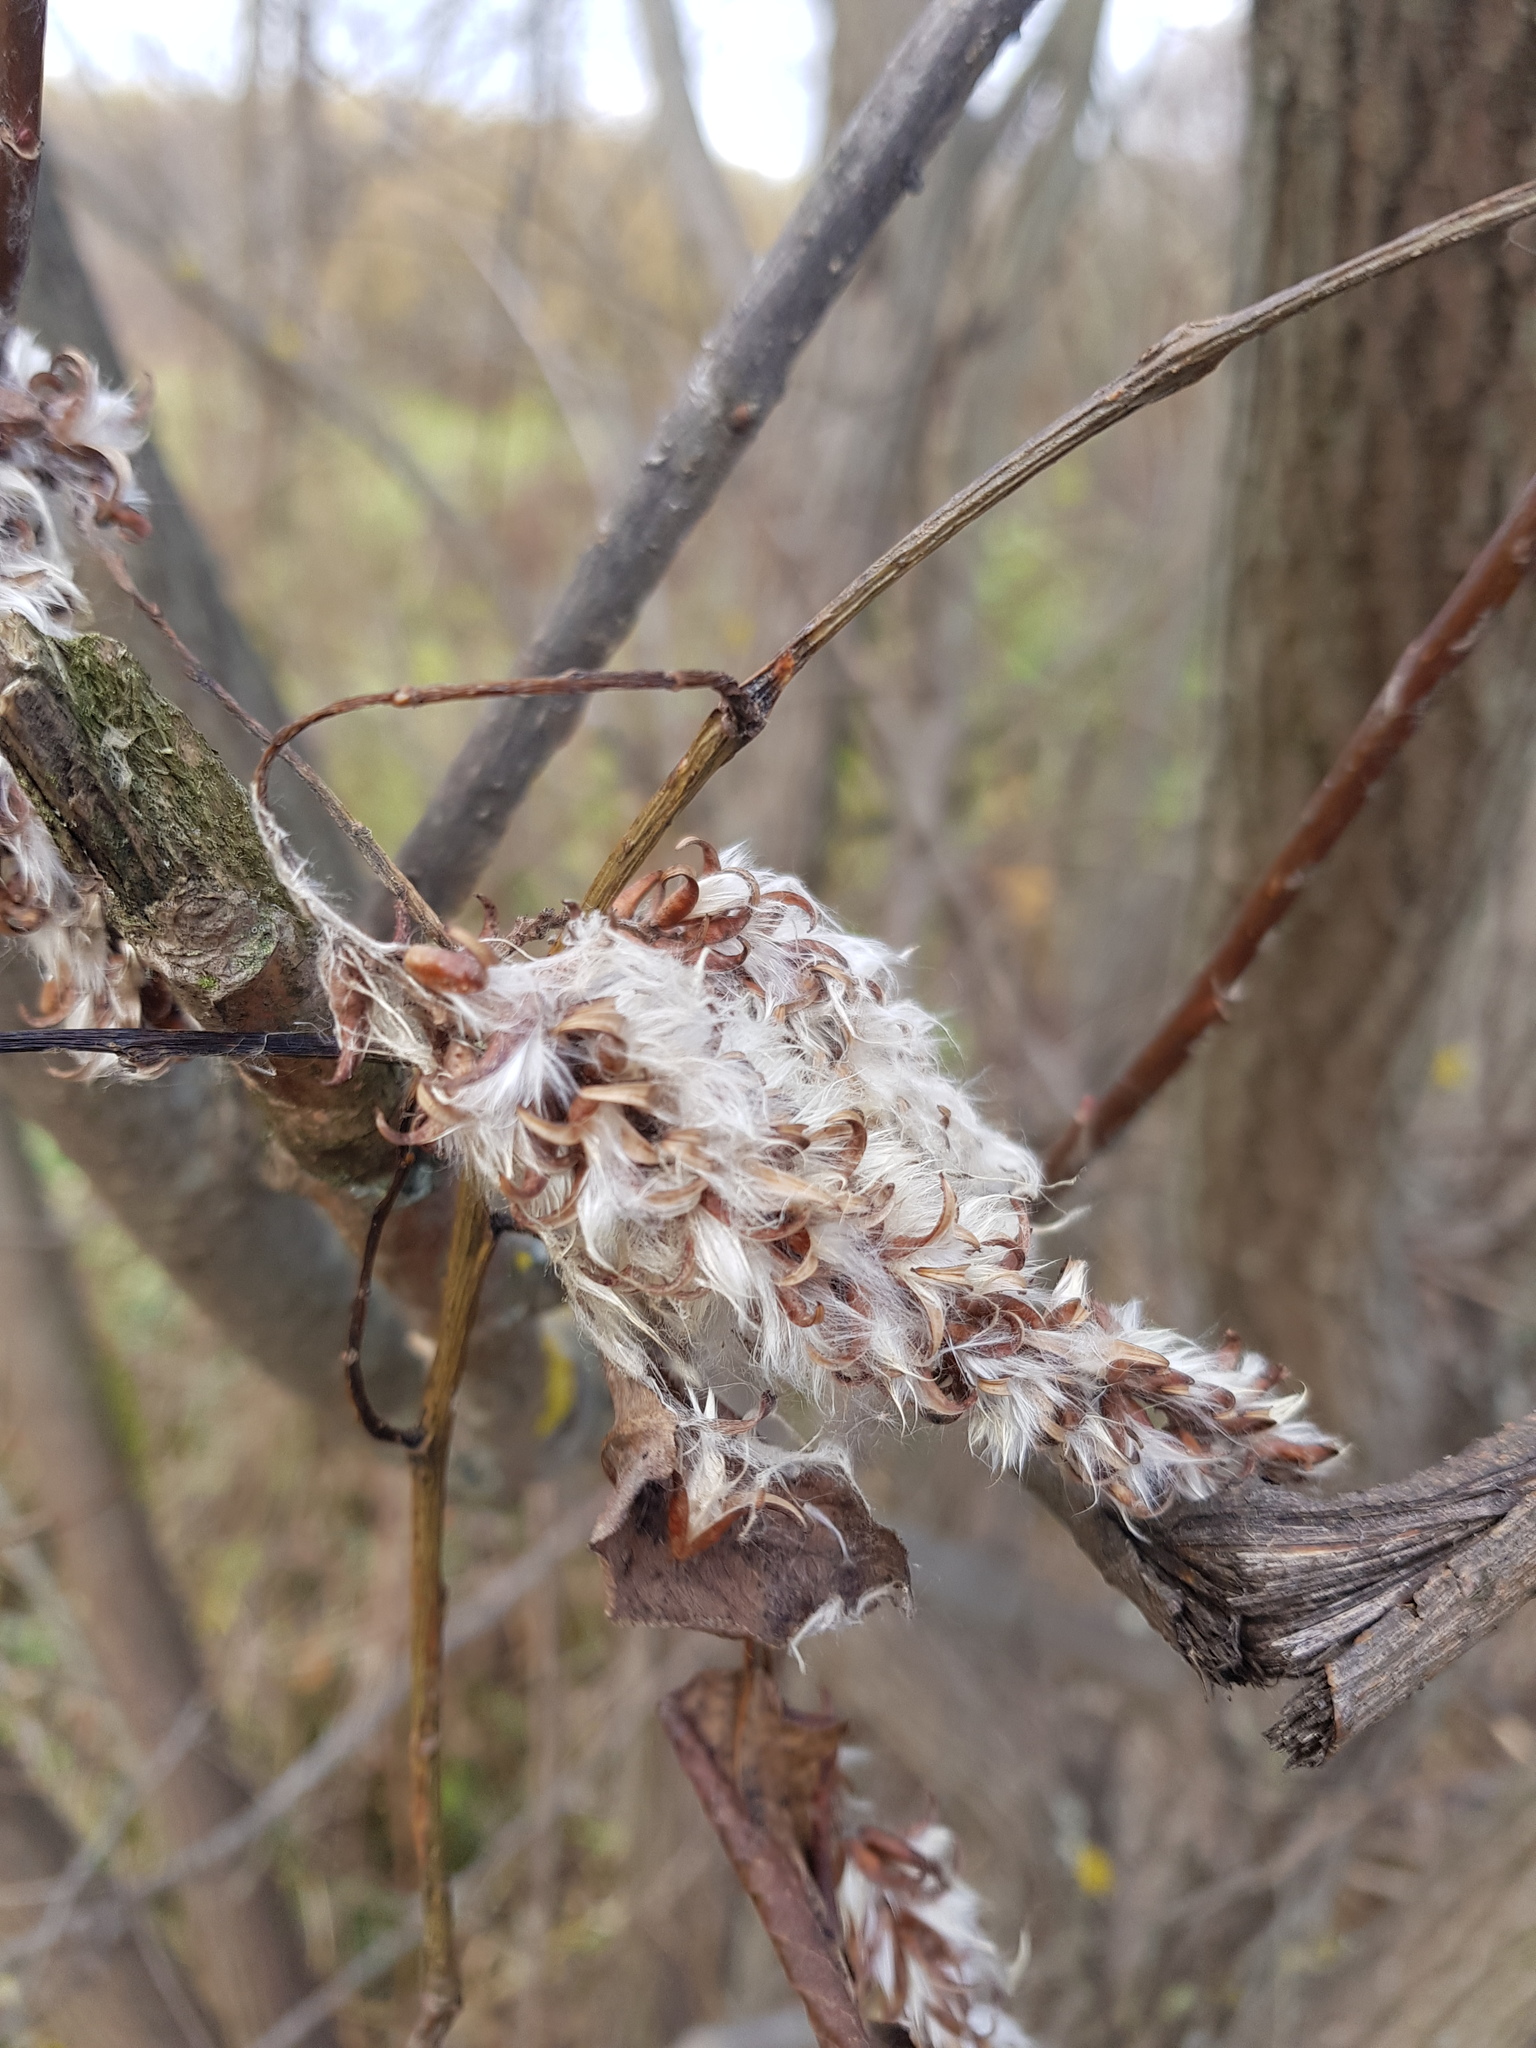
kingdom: Plantae
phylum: Tracheophyta
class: Magnoliopsida
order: Malpighiales
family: Salicaceae
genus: Salix
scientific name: Salix pentandra
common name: Bay willow
